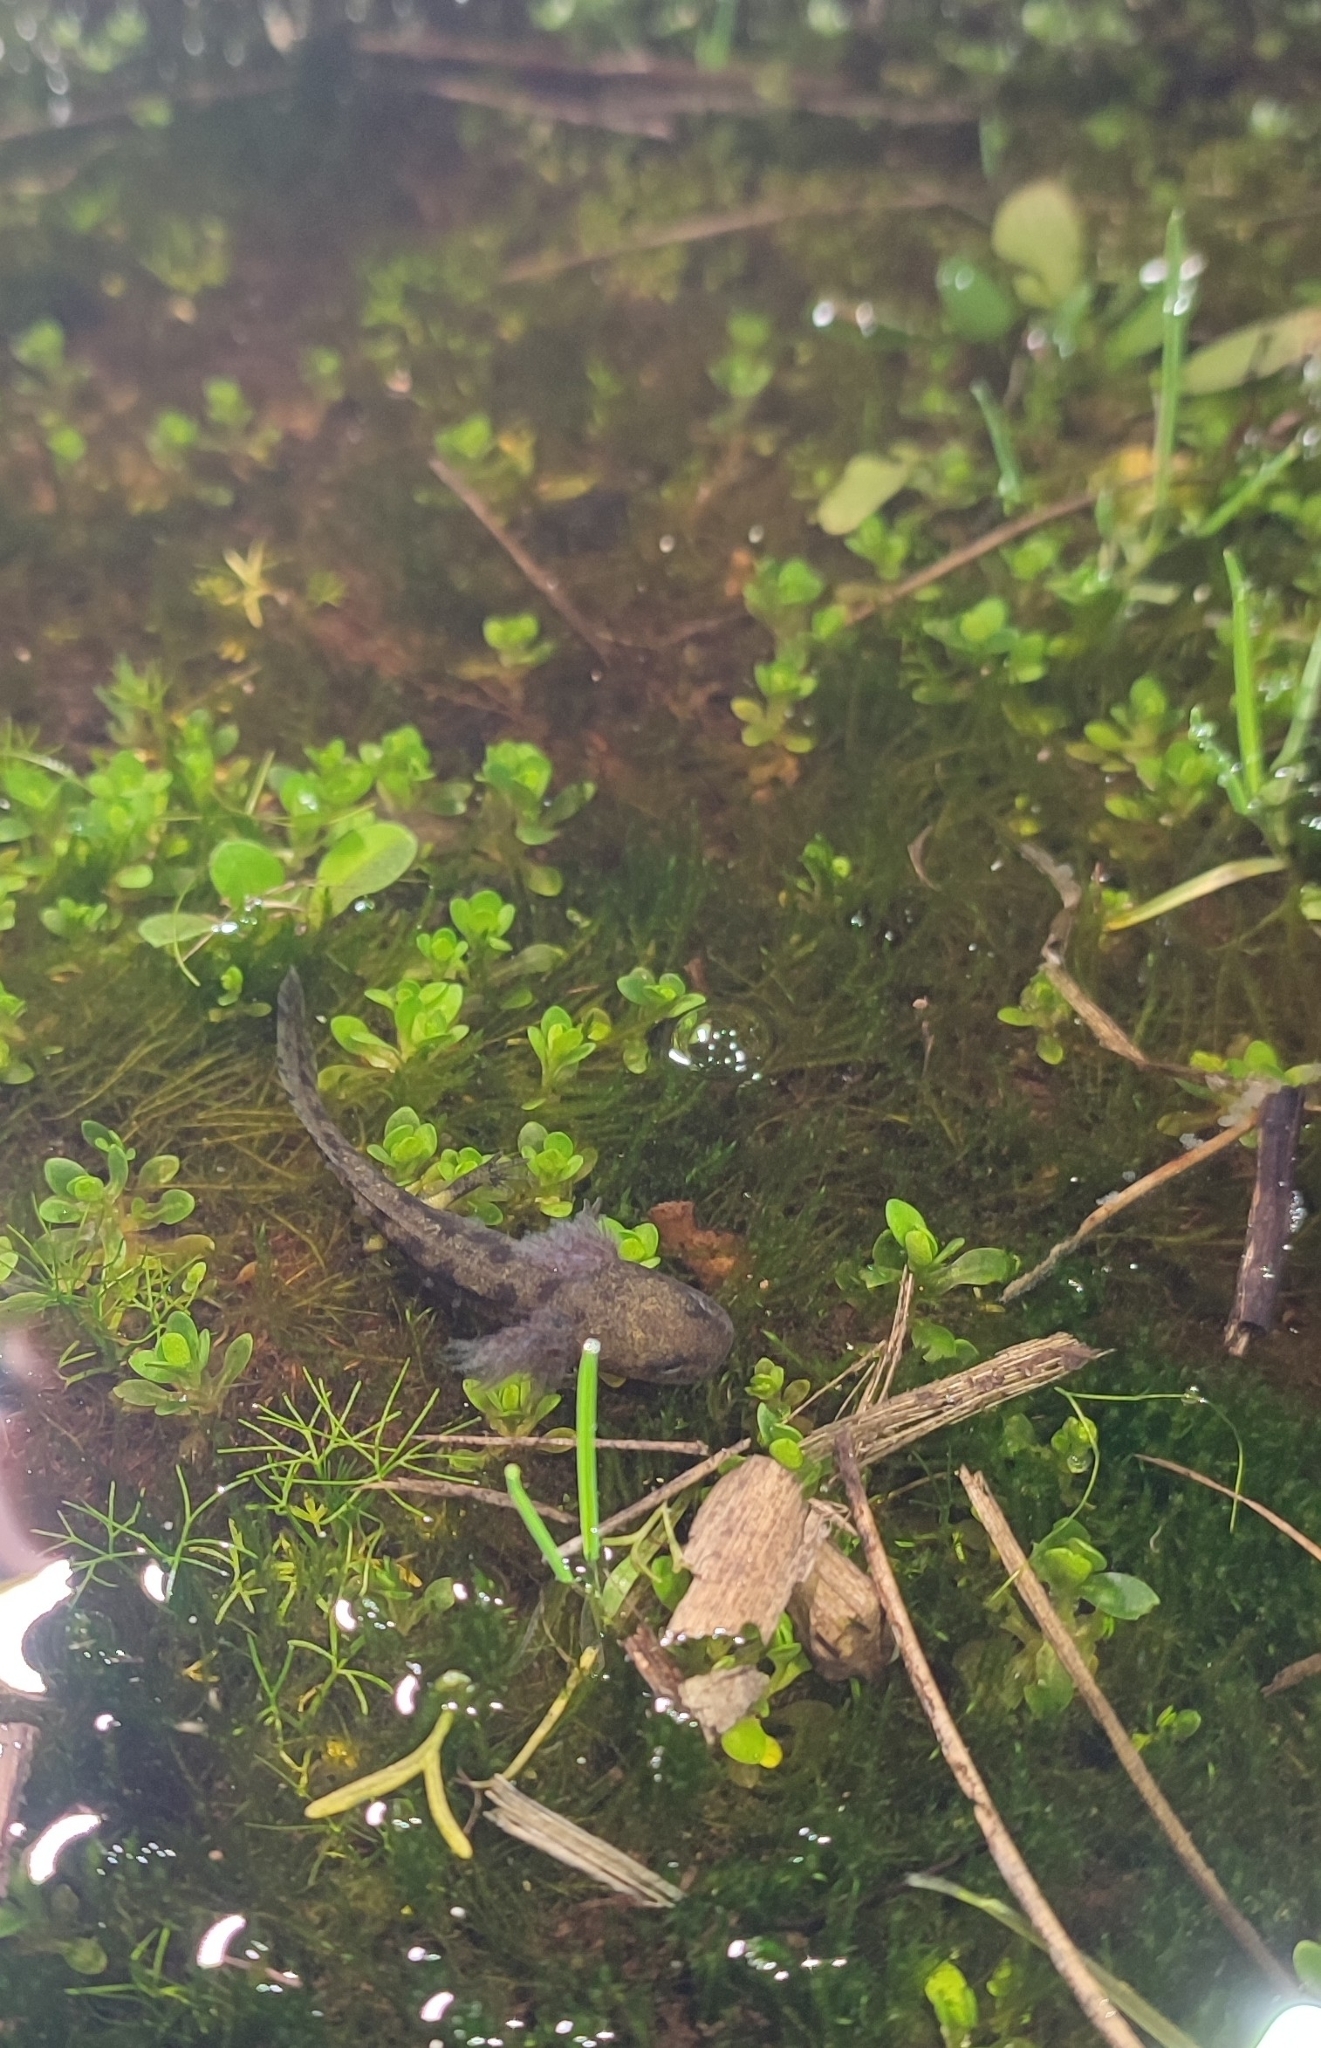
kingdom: Animalia
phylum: Chordata
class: Amphibia
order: Caudata
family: Salamandridae
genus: Salamandra
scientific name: Salamandra salamandra
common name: Fire salamander
